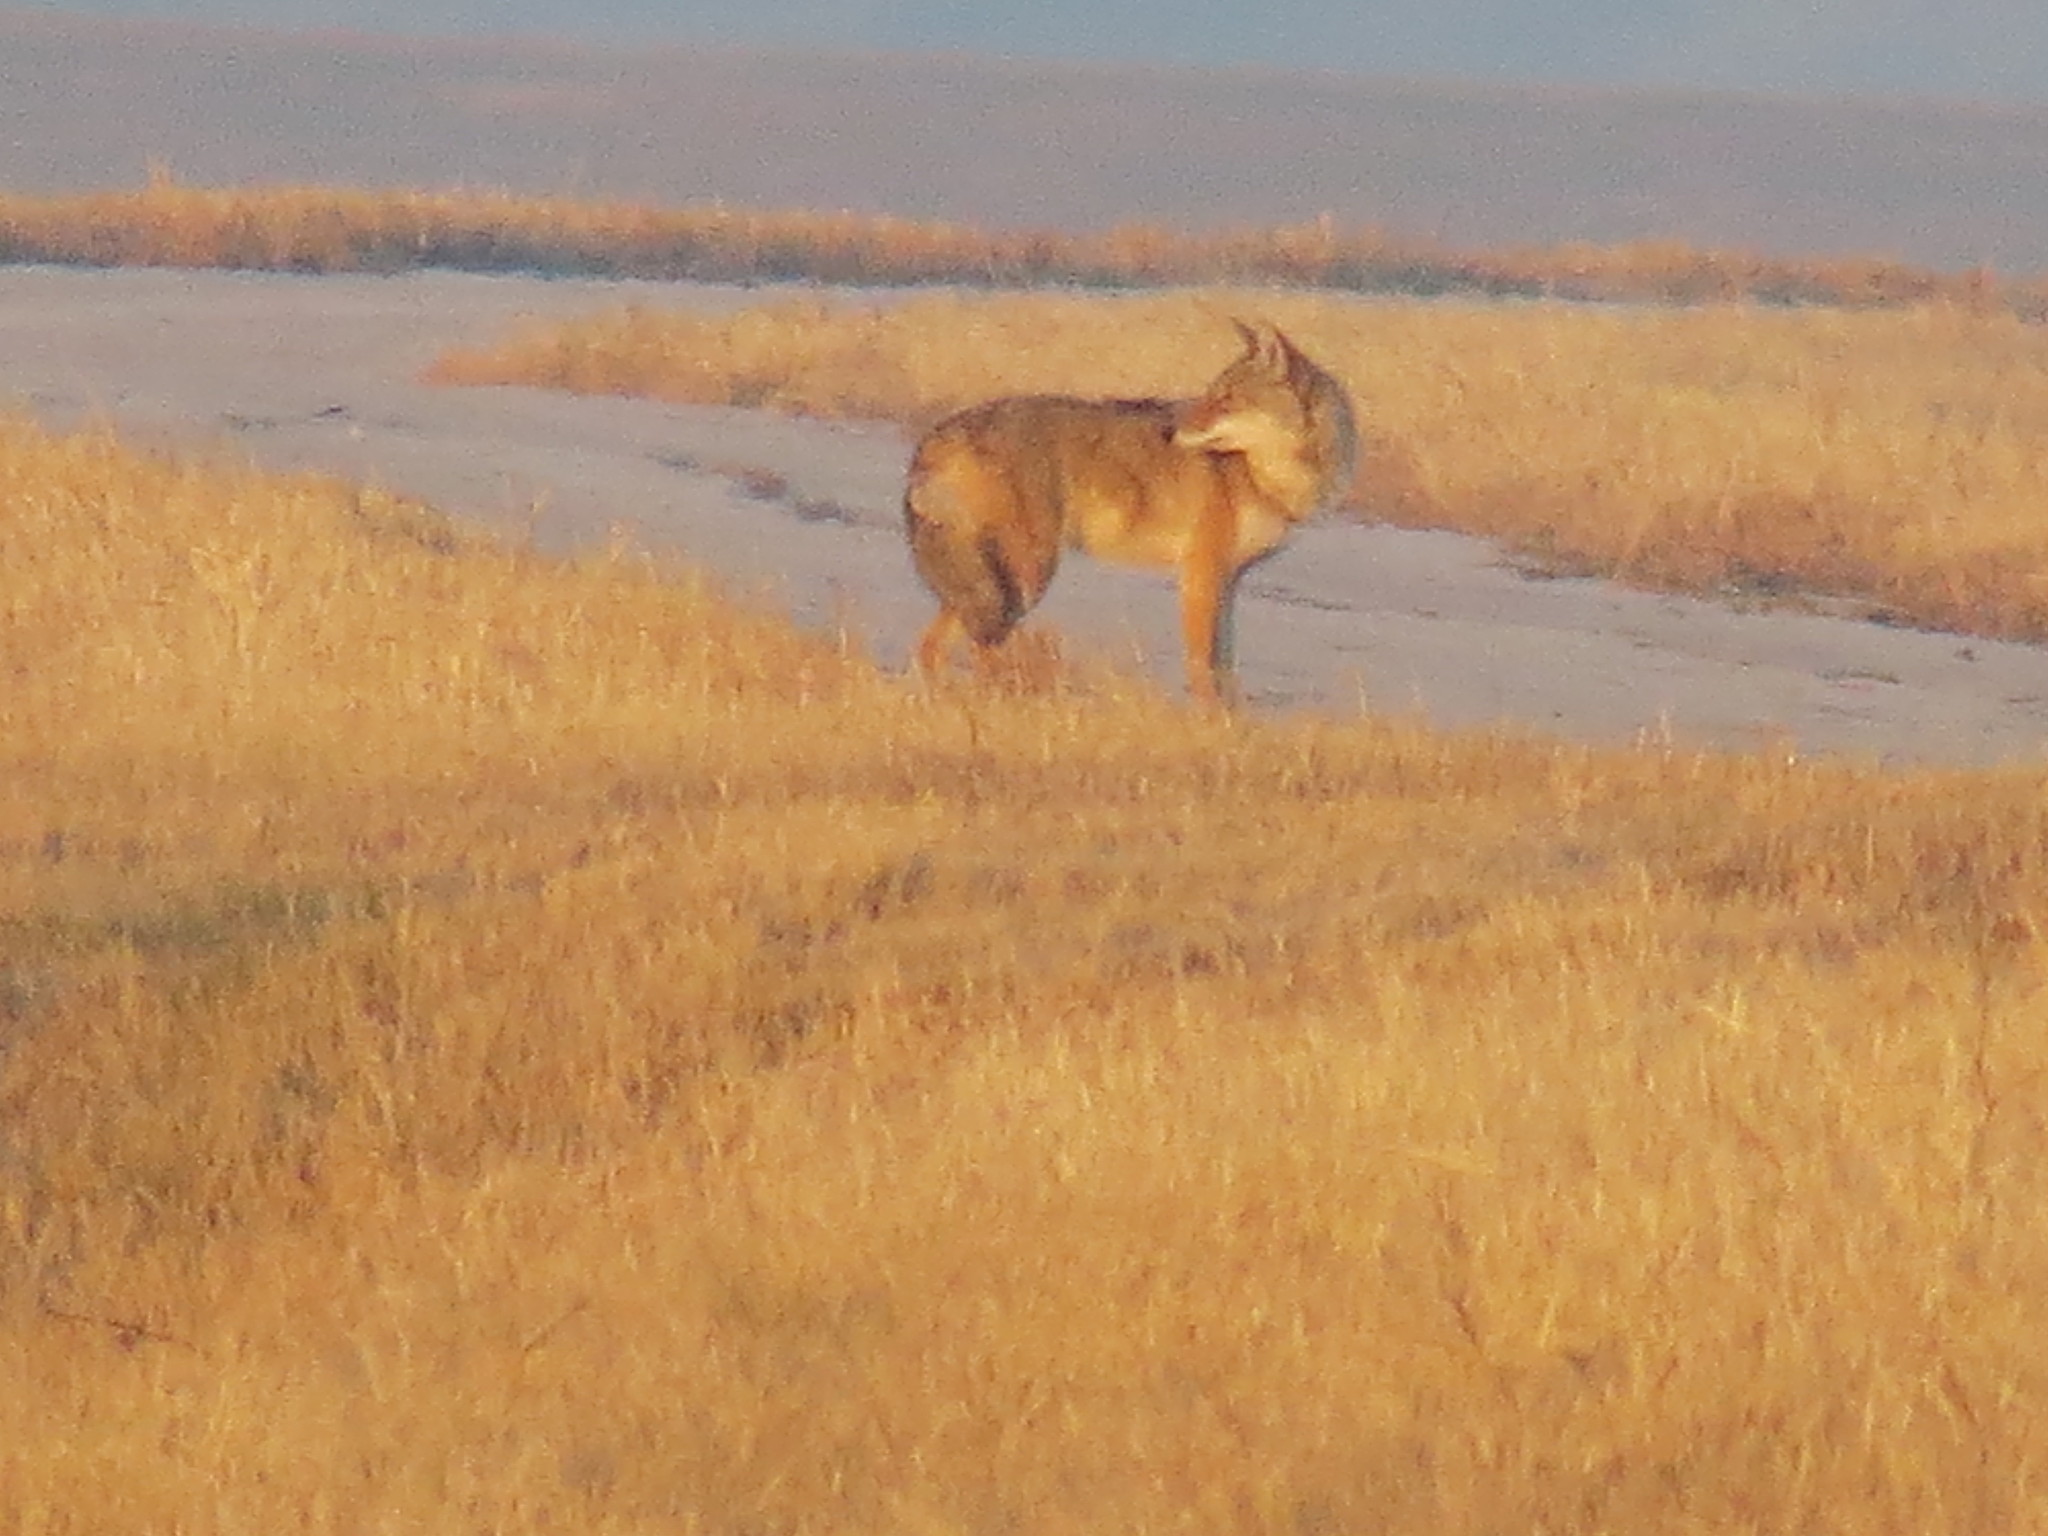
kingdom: Animalia
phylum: Chordata
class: Mammalia
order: Carnivora
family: Canidae
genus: Canis
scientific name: Canis latrans
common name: Coyote
